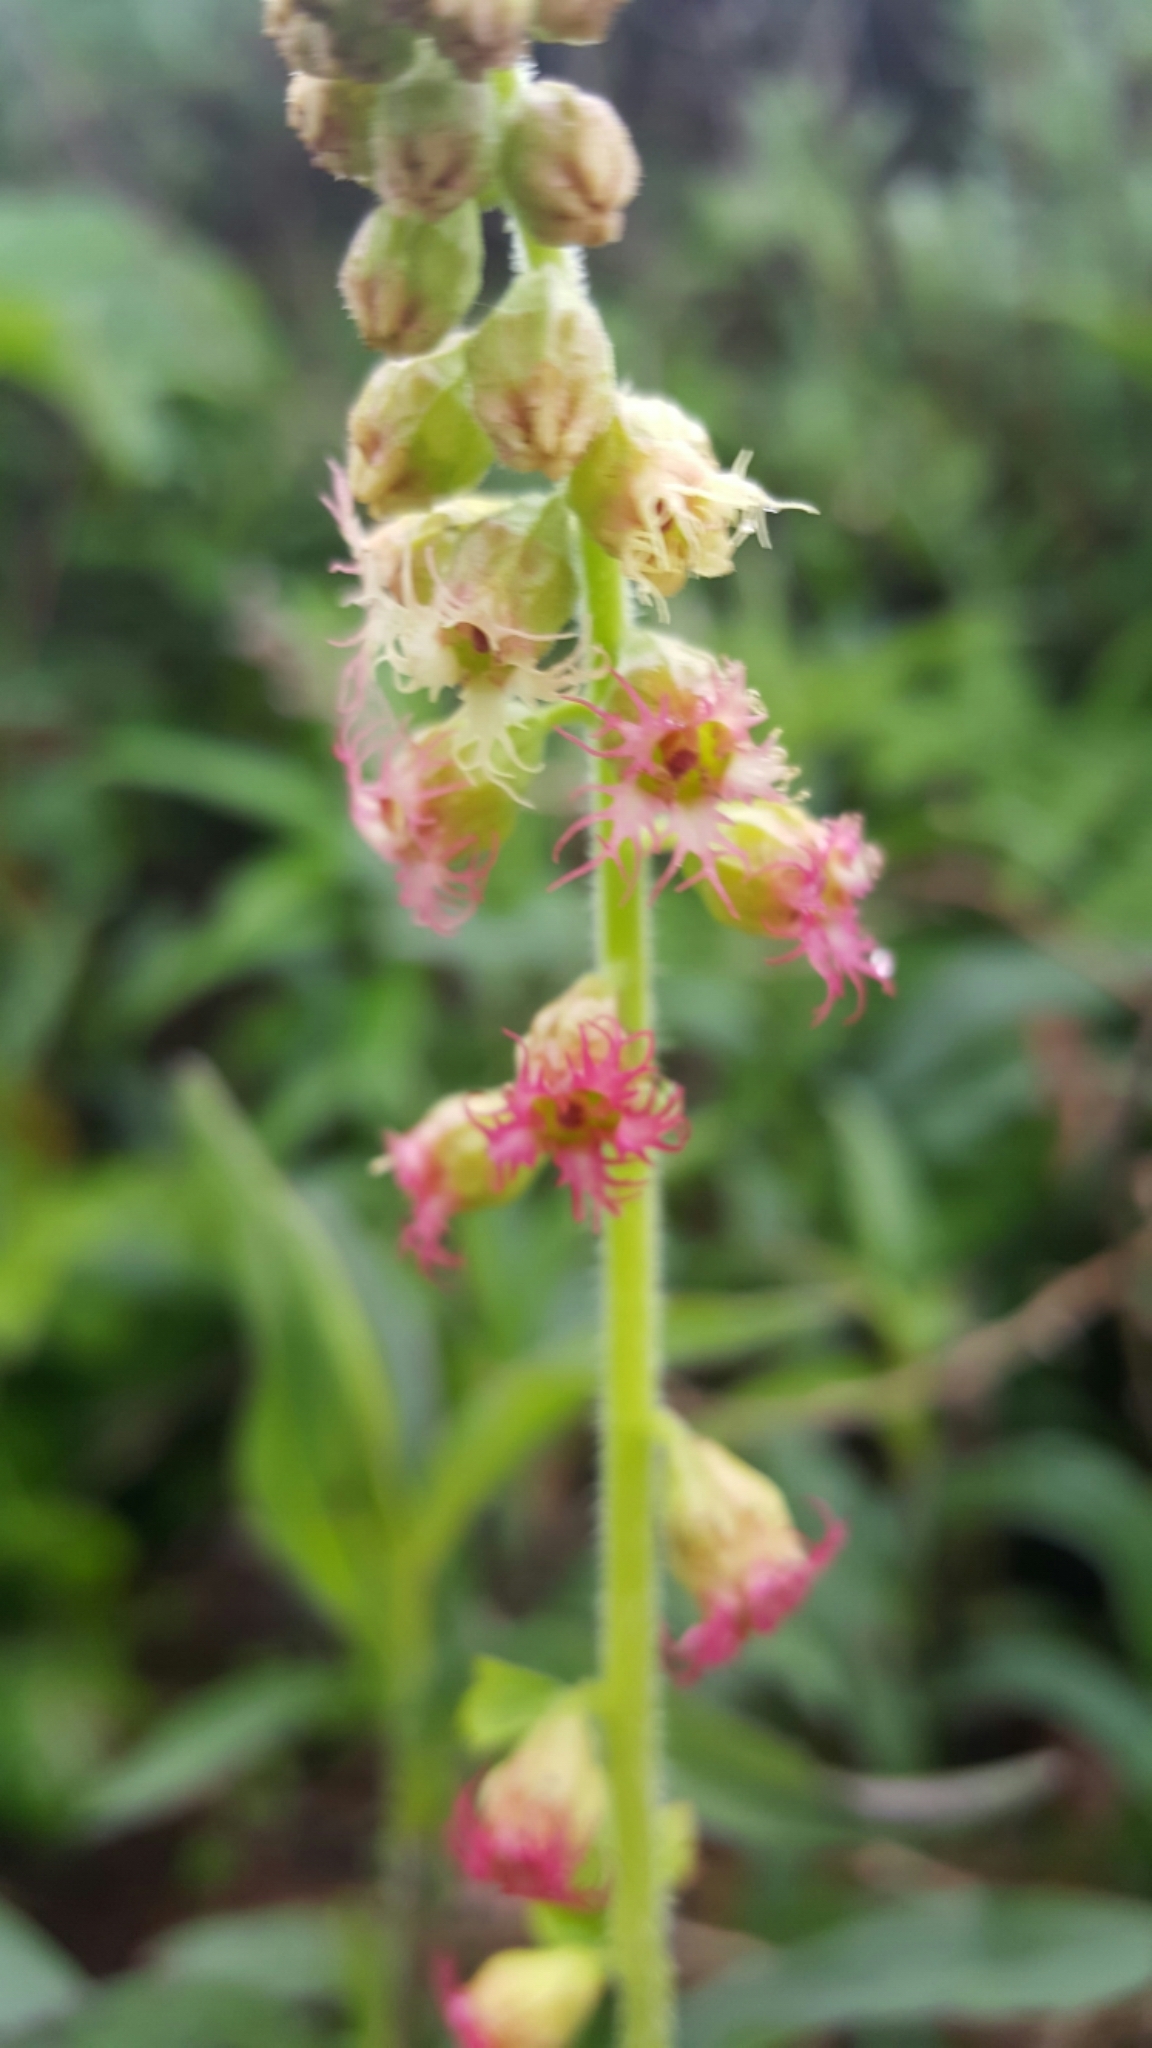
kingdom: Plantae
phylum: Tracheophyta
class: Magnoliopsida
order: Saxifragales
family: Saxifragaceae
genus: Tellima
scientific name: Tellima grandiflora
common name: Fringecups
